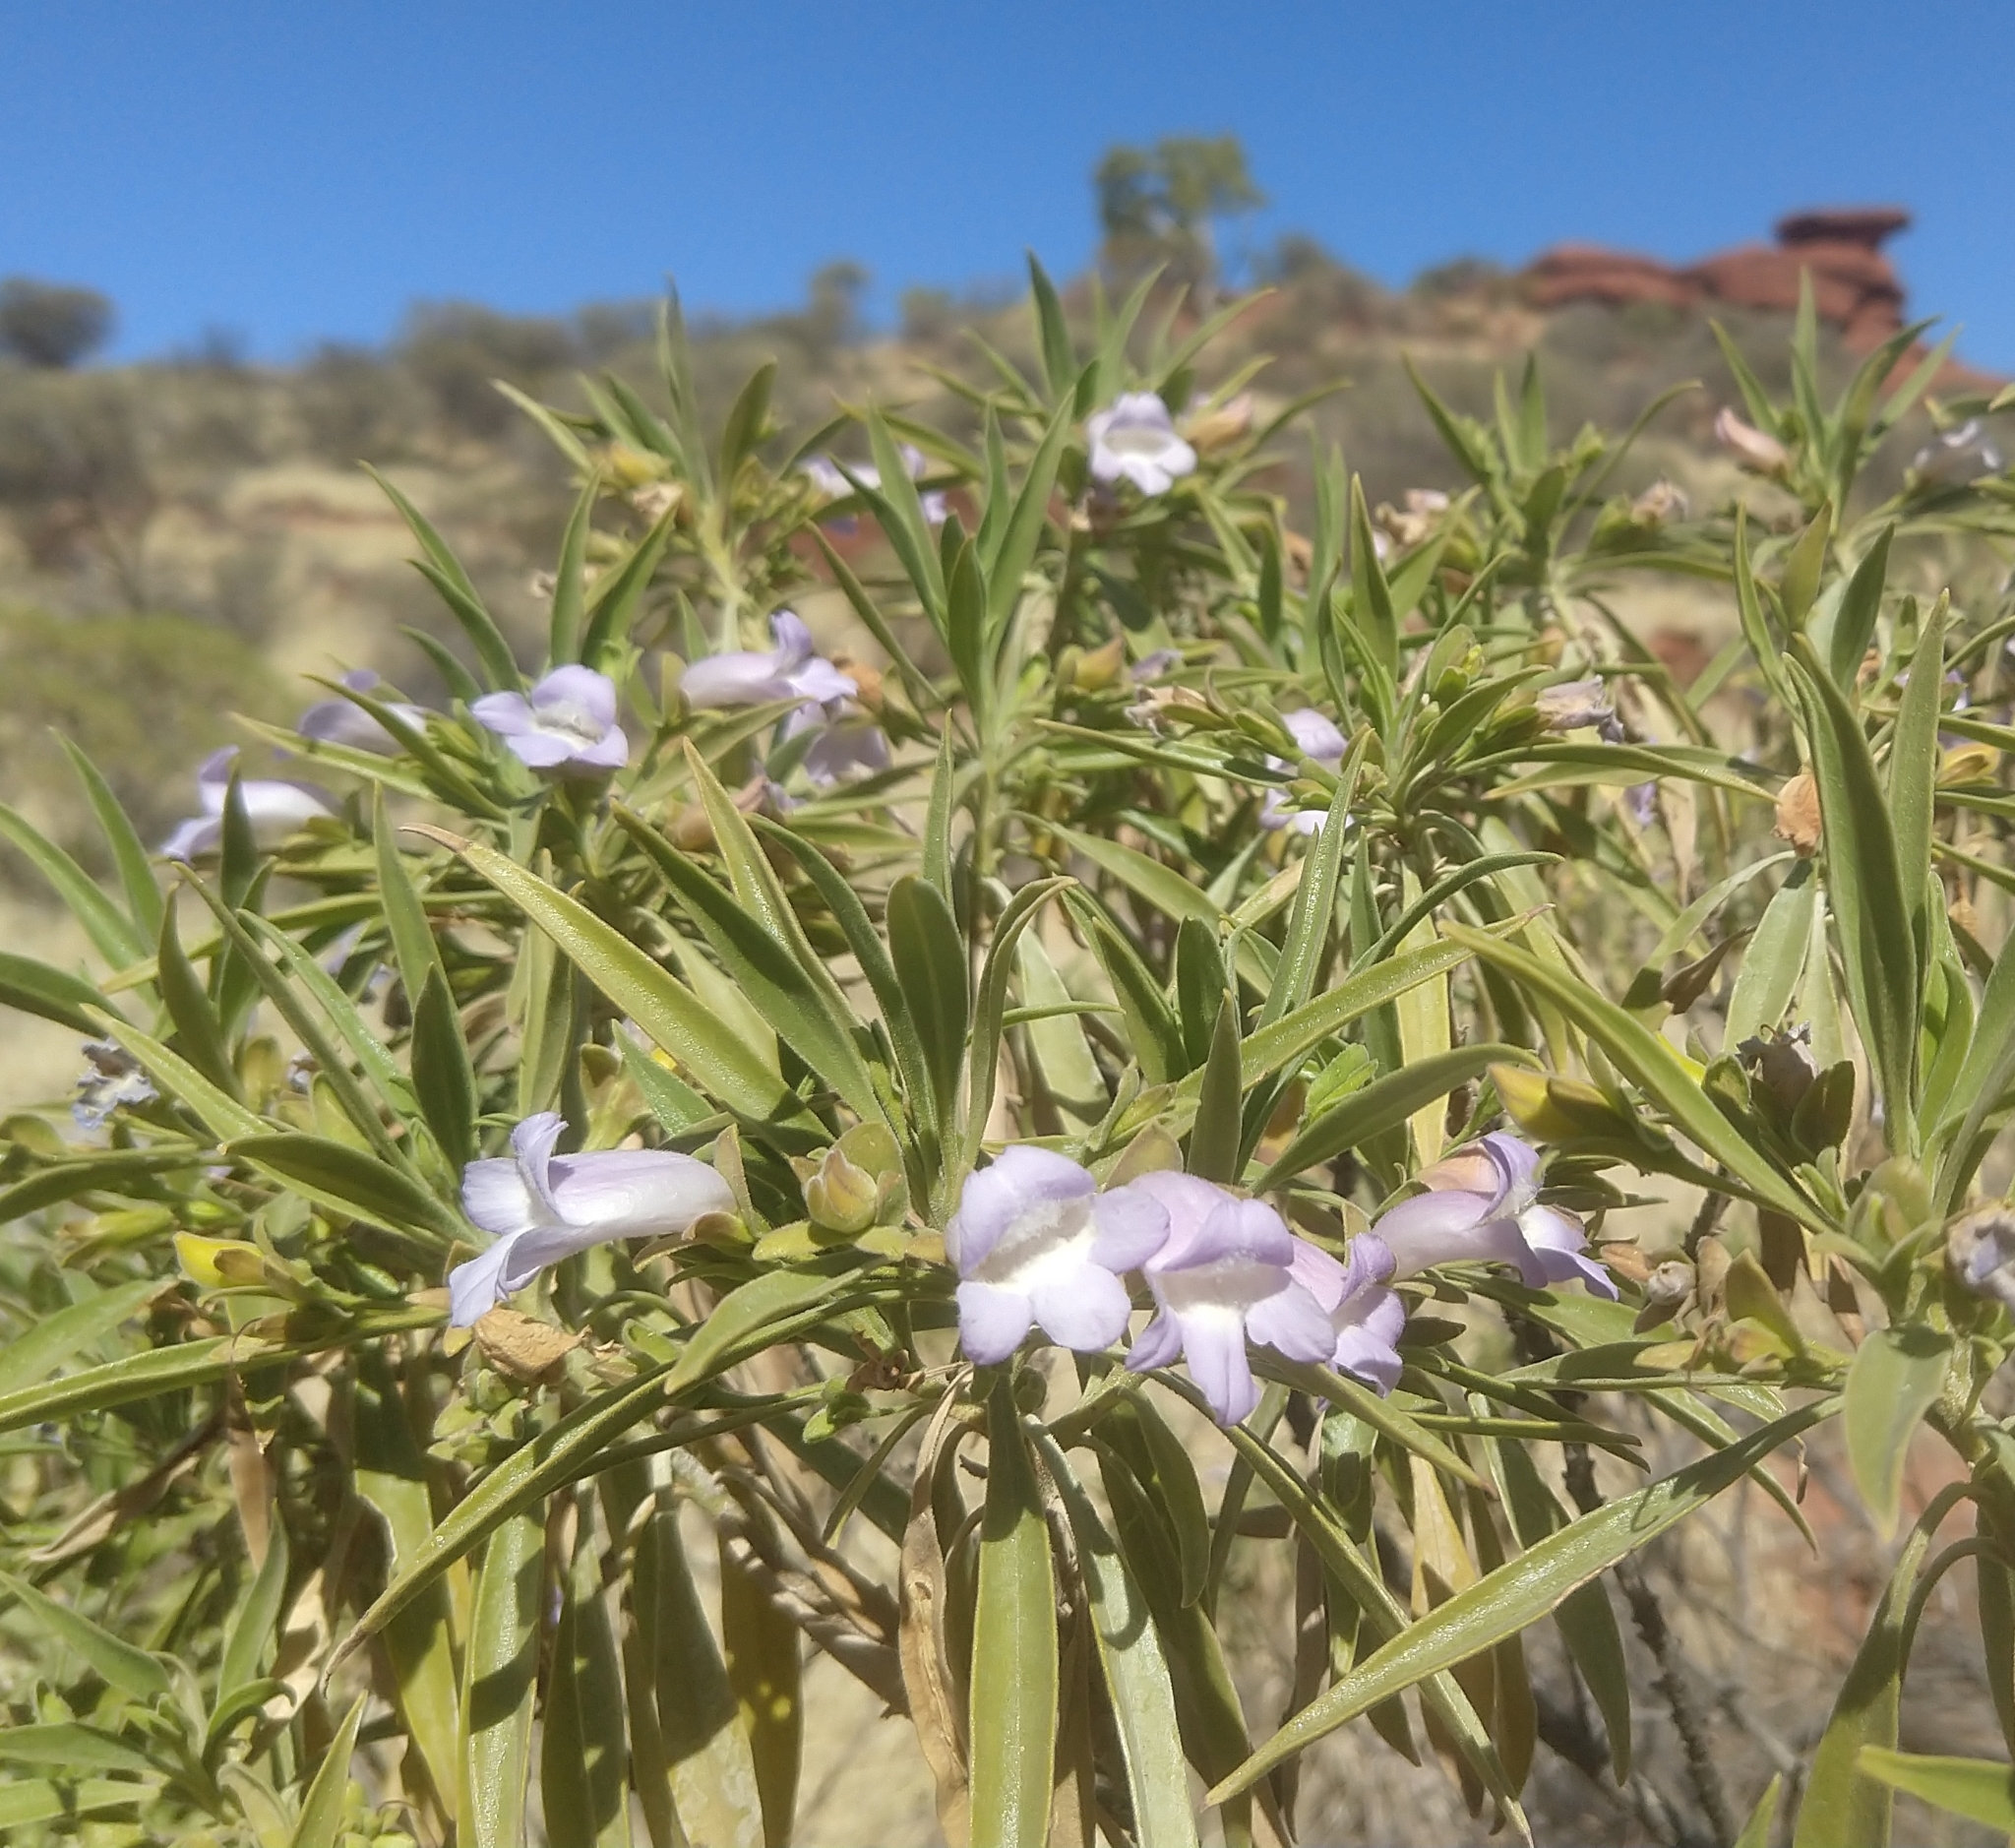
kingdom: Plantae
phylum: Tracheophyta
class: Magnoliopsida
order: Lamiales
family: Scrophulariaceae
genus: Eremophila
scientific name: Eremophila freelingii
